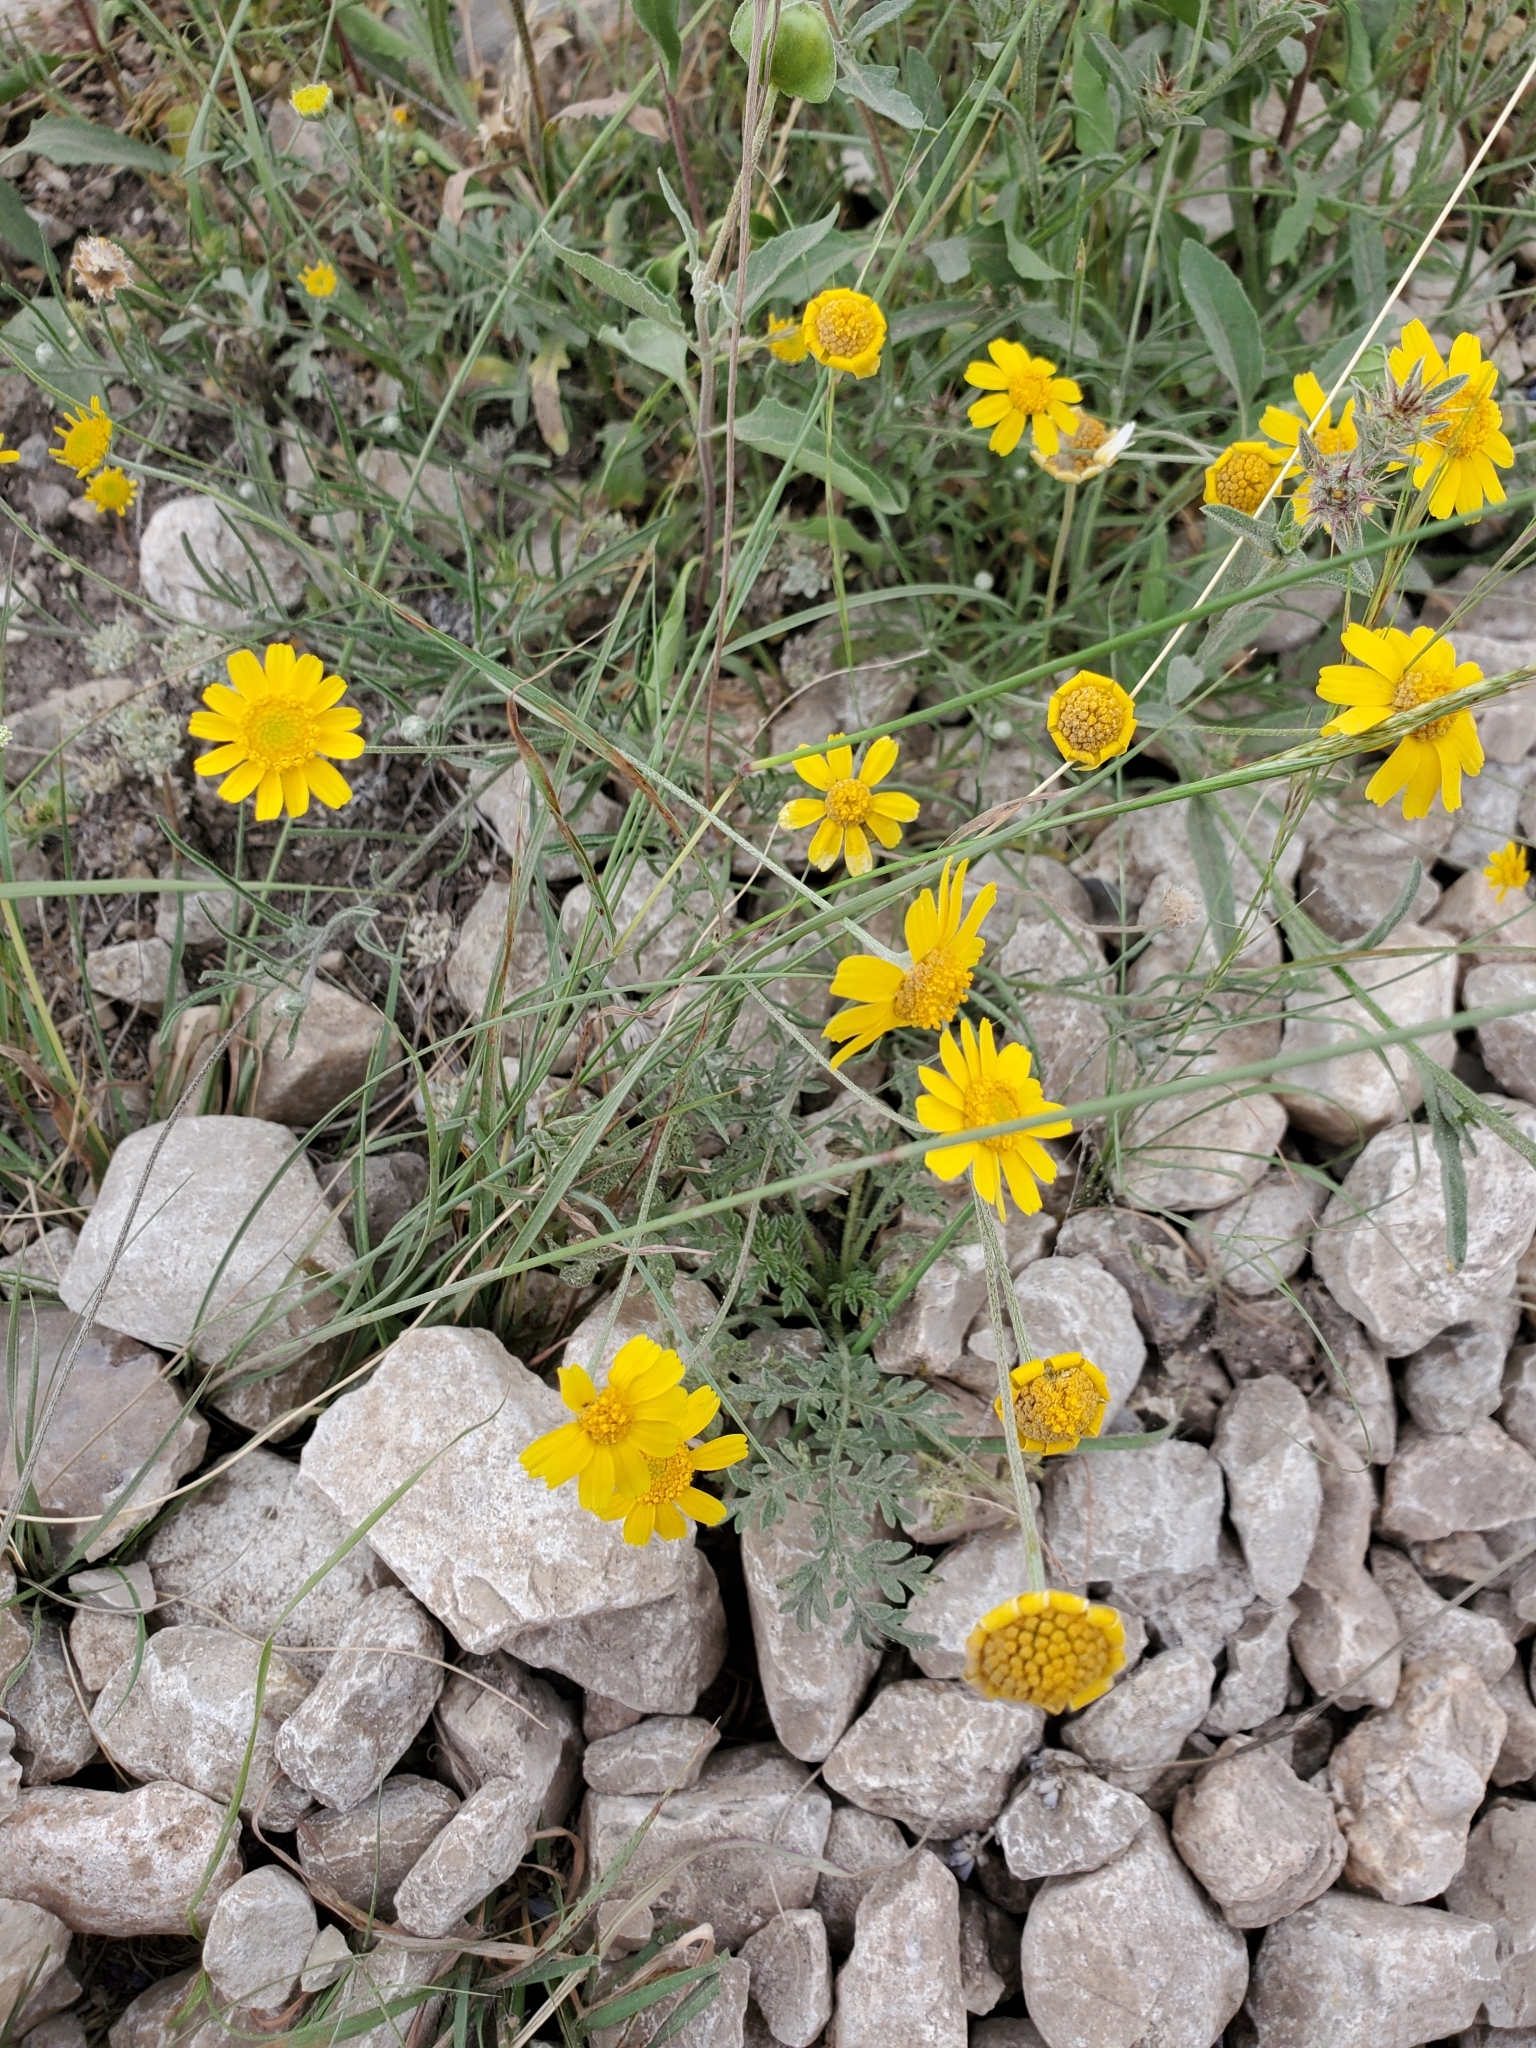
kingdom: Plantae
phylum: Tracheophyta
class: Magnoliopsida
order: Asterales
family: Asteraceae
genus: Tetraneuris
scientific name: Tetraneuris linearifolia
